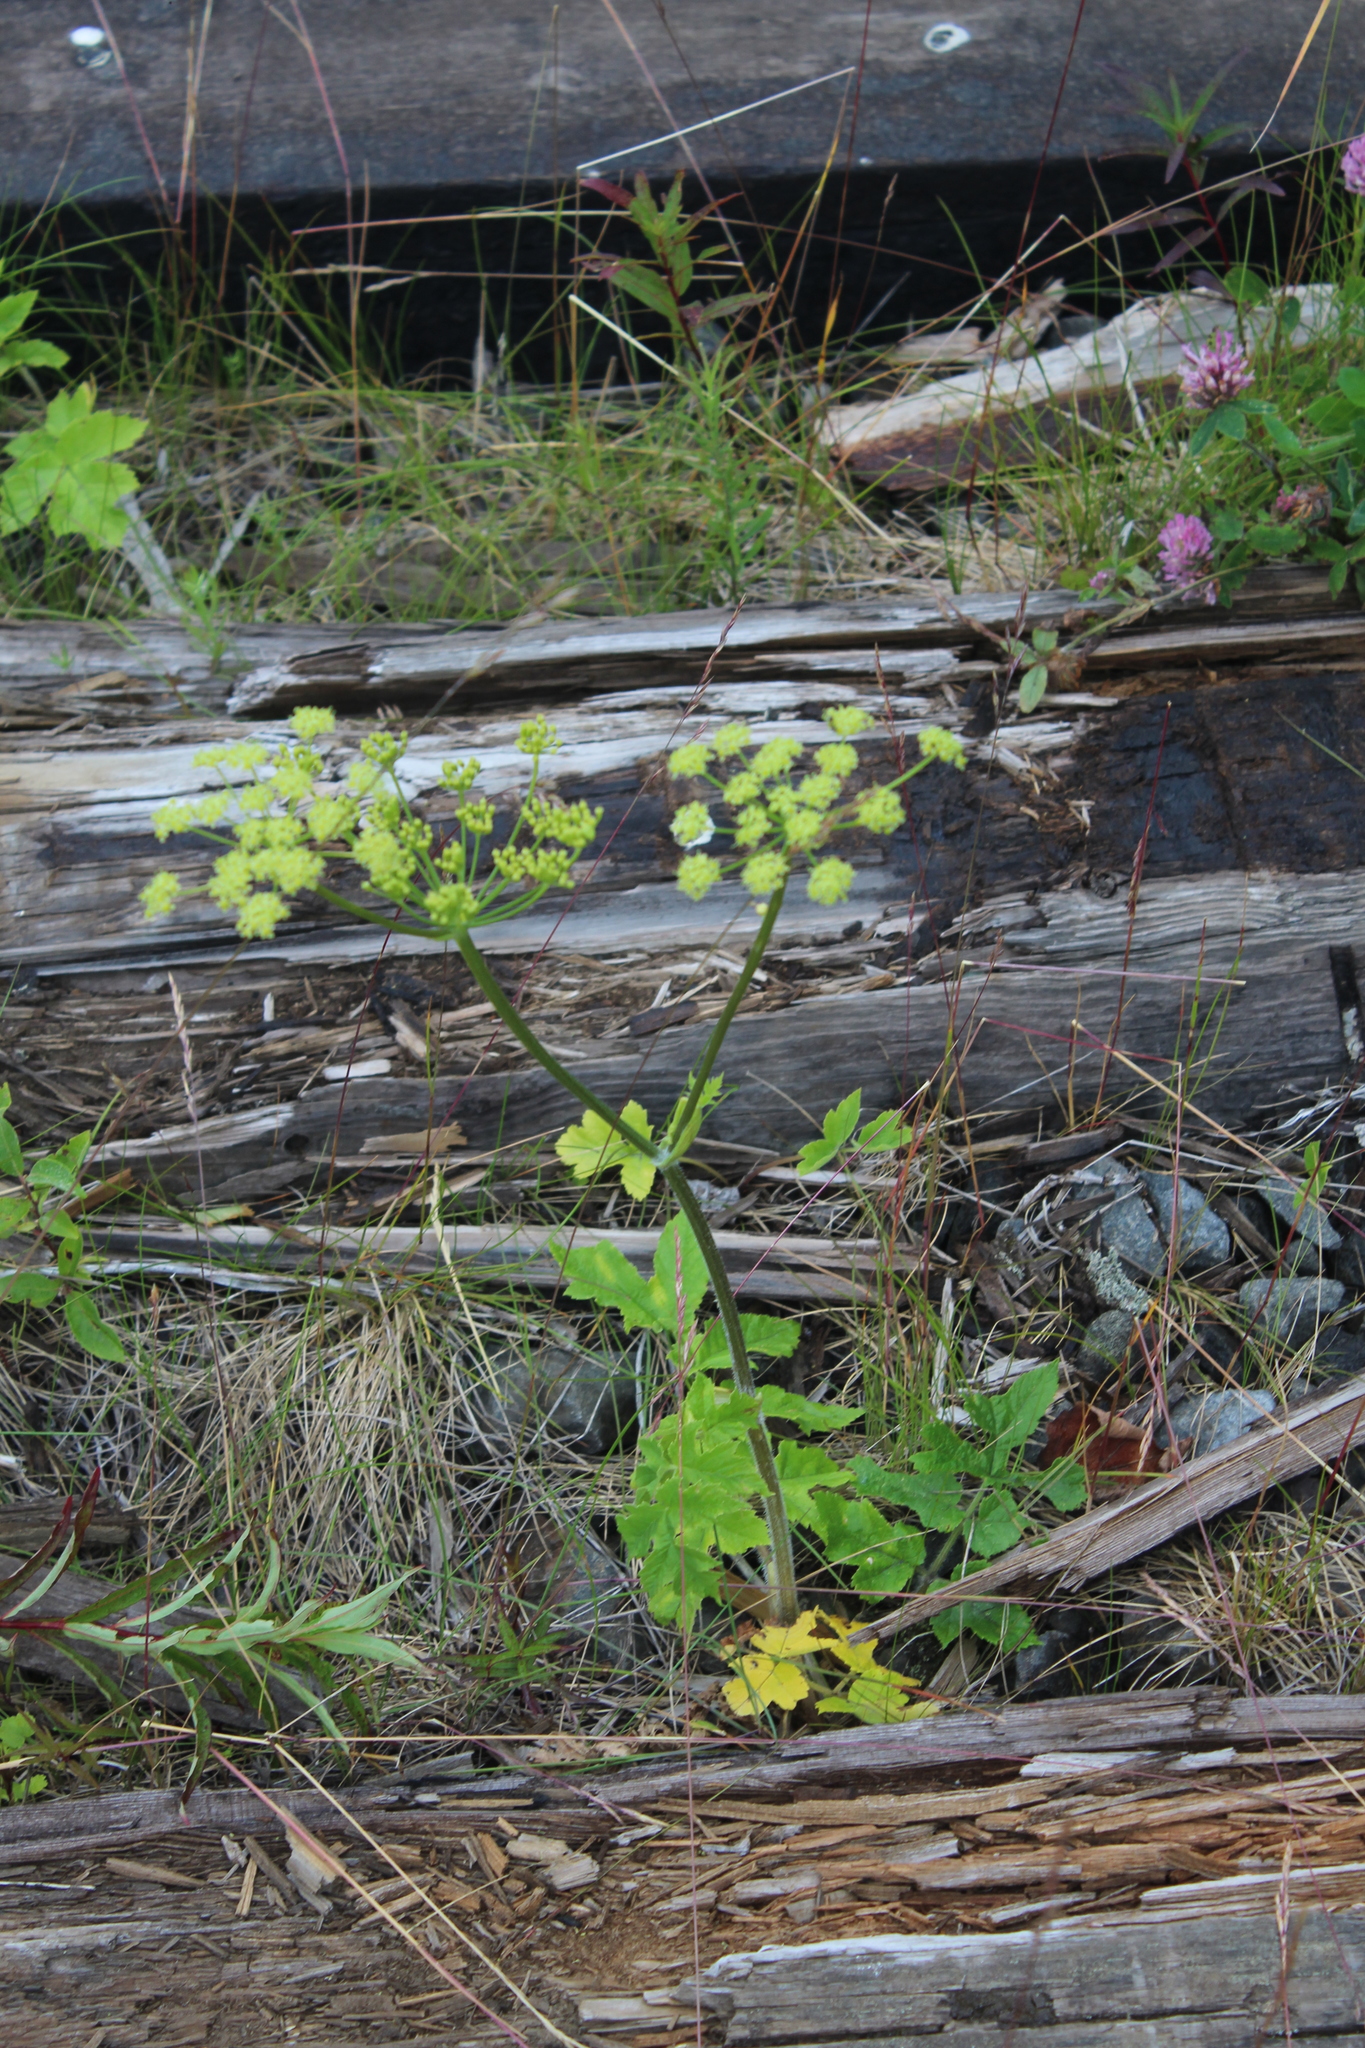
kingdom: Plantae
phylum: Tracheophyta
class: Magnoliopsida
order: Apiales
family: Apiaceae
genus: Heracleum
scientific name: Heracleum sphondylium
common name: Hogweed
